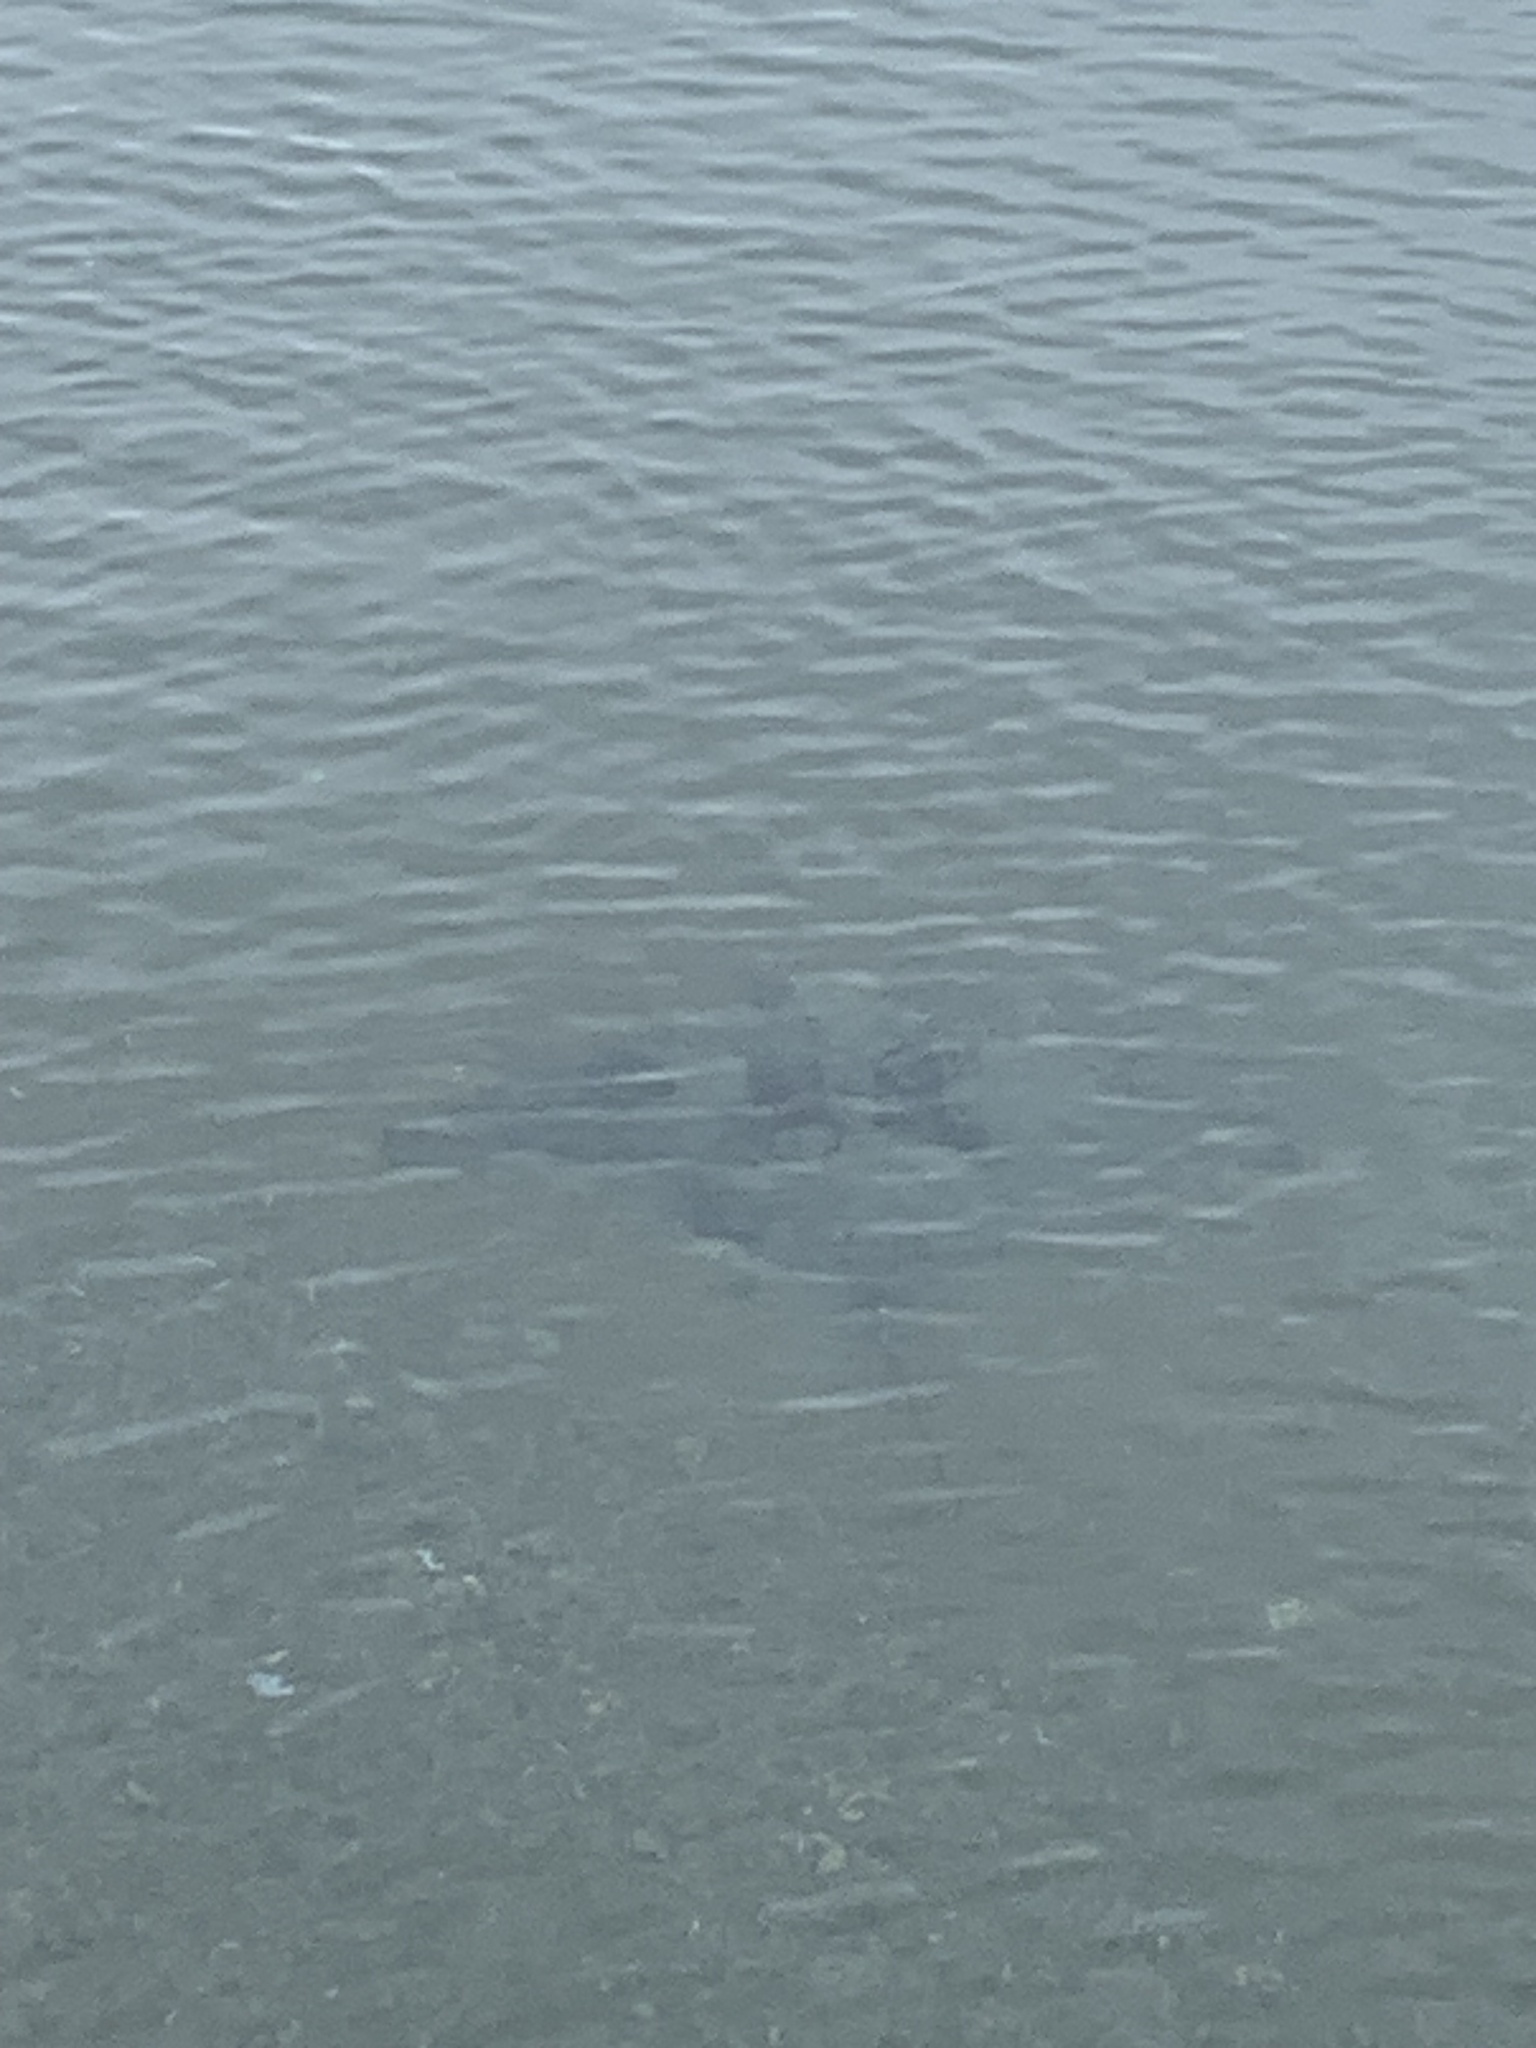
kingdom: Animalia
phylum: Chordata
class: Elasmobranchii
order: Myliobatiformes
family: Myliobatidae
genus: Myliobatis
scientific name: Myliobatis tenuicaudatus
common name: Eagle ray
